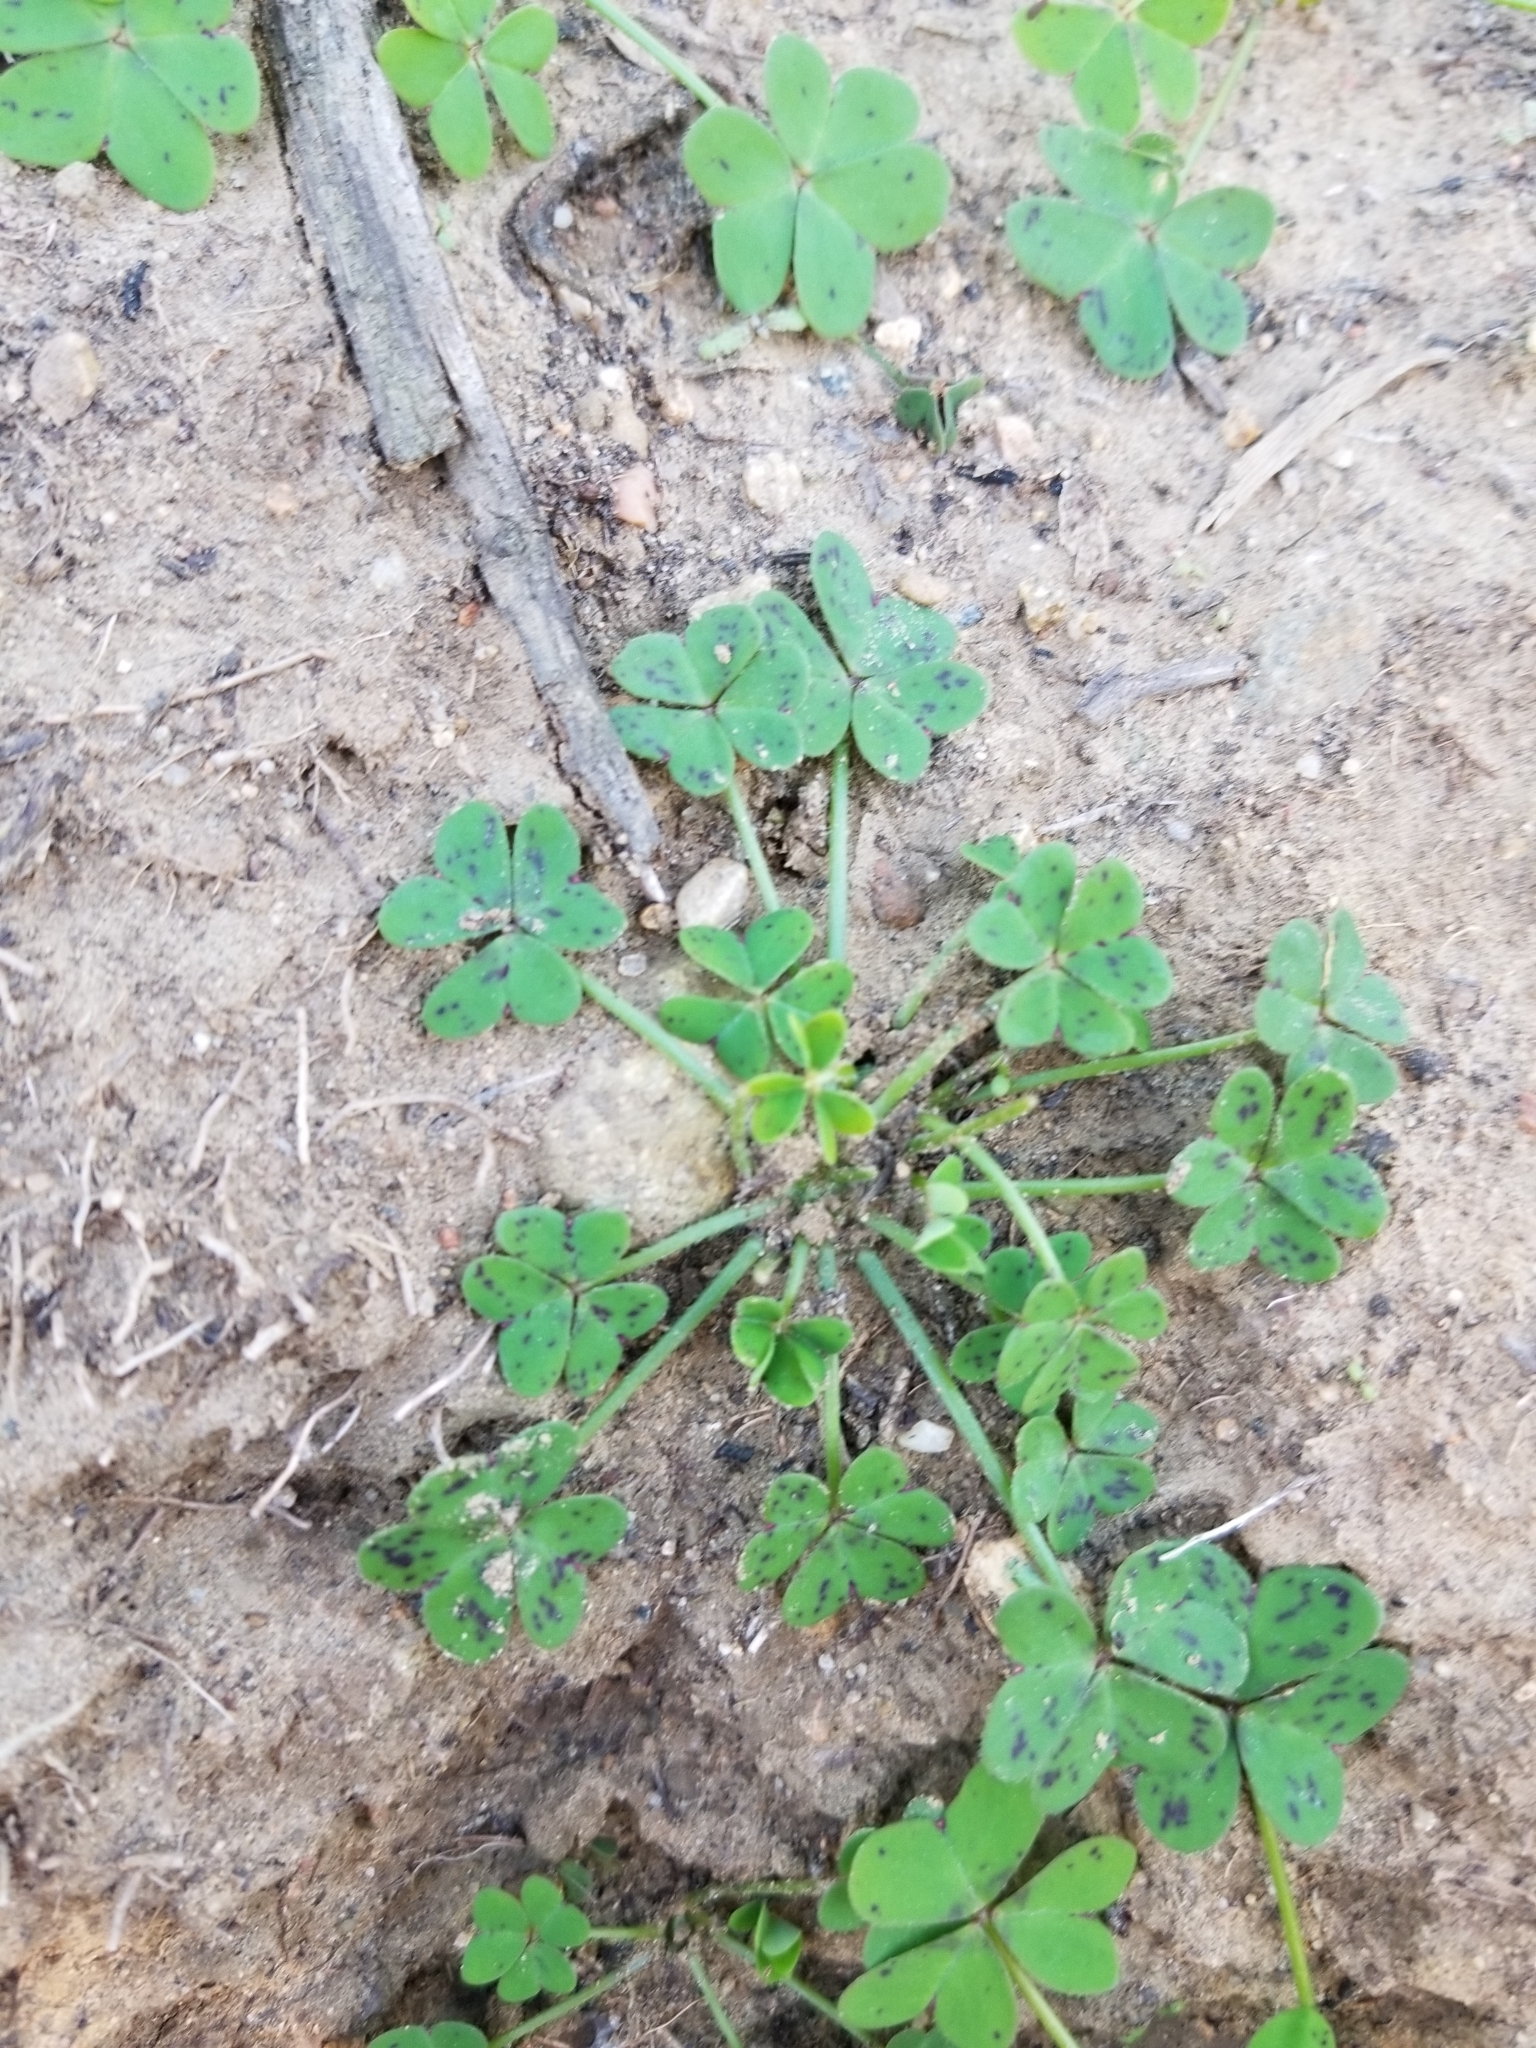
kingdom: Plantae
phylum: Tracheophyta
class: Magnoliopsida
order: Oxalidales
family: Oxalidaceae
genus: Oxalis
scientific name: Oxalis pes-caprae
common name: Bermuda-buttercup
